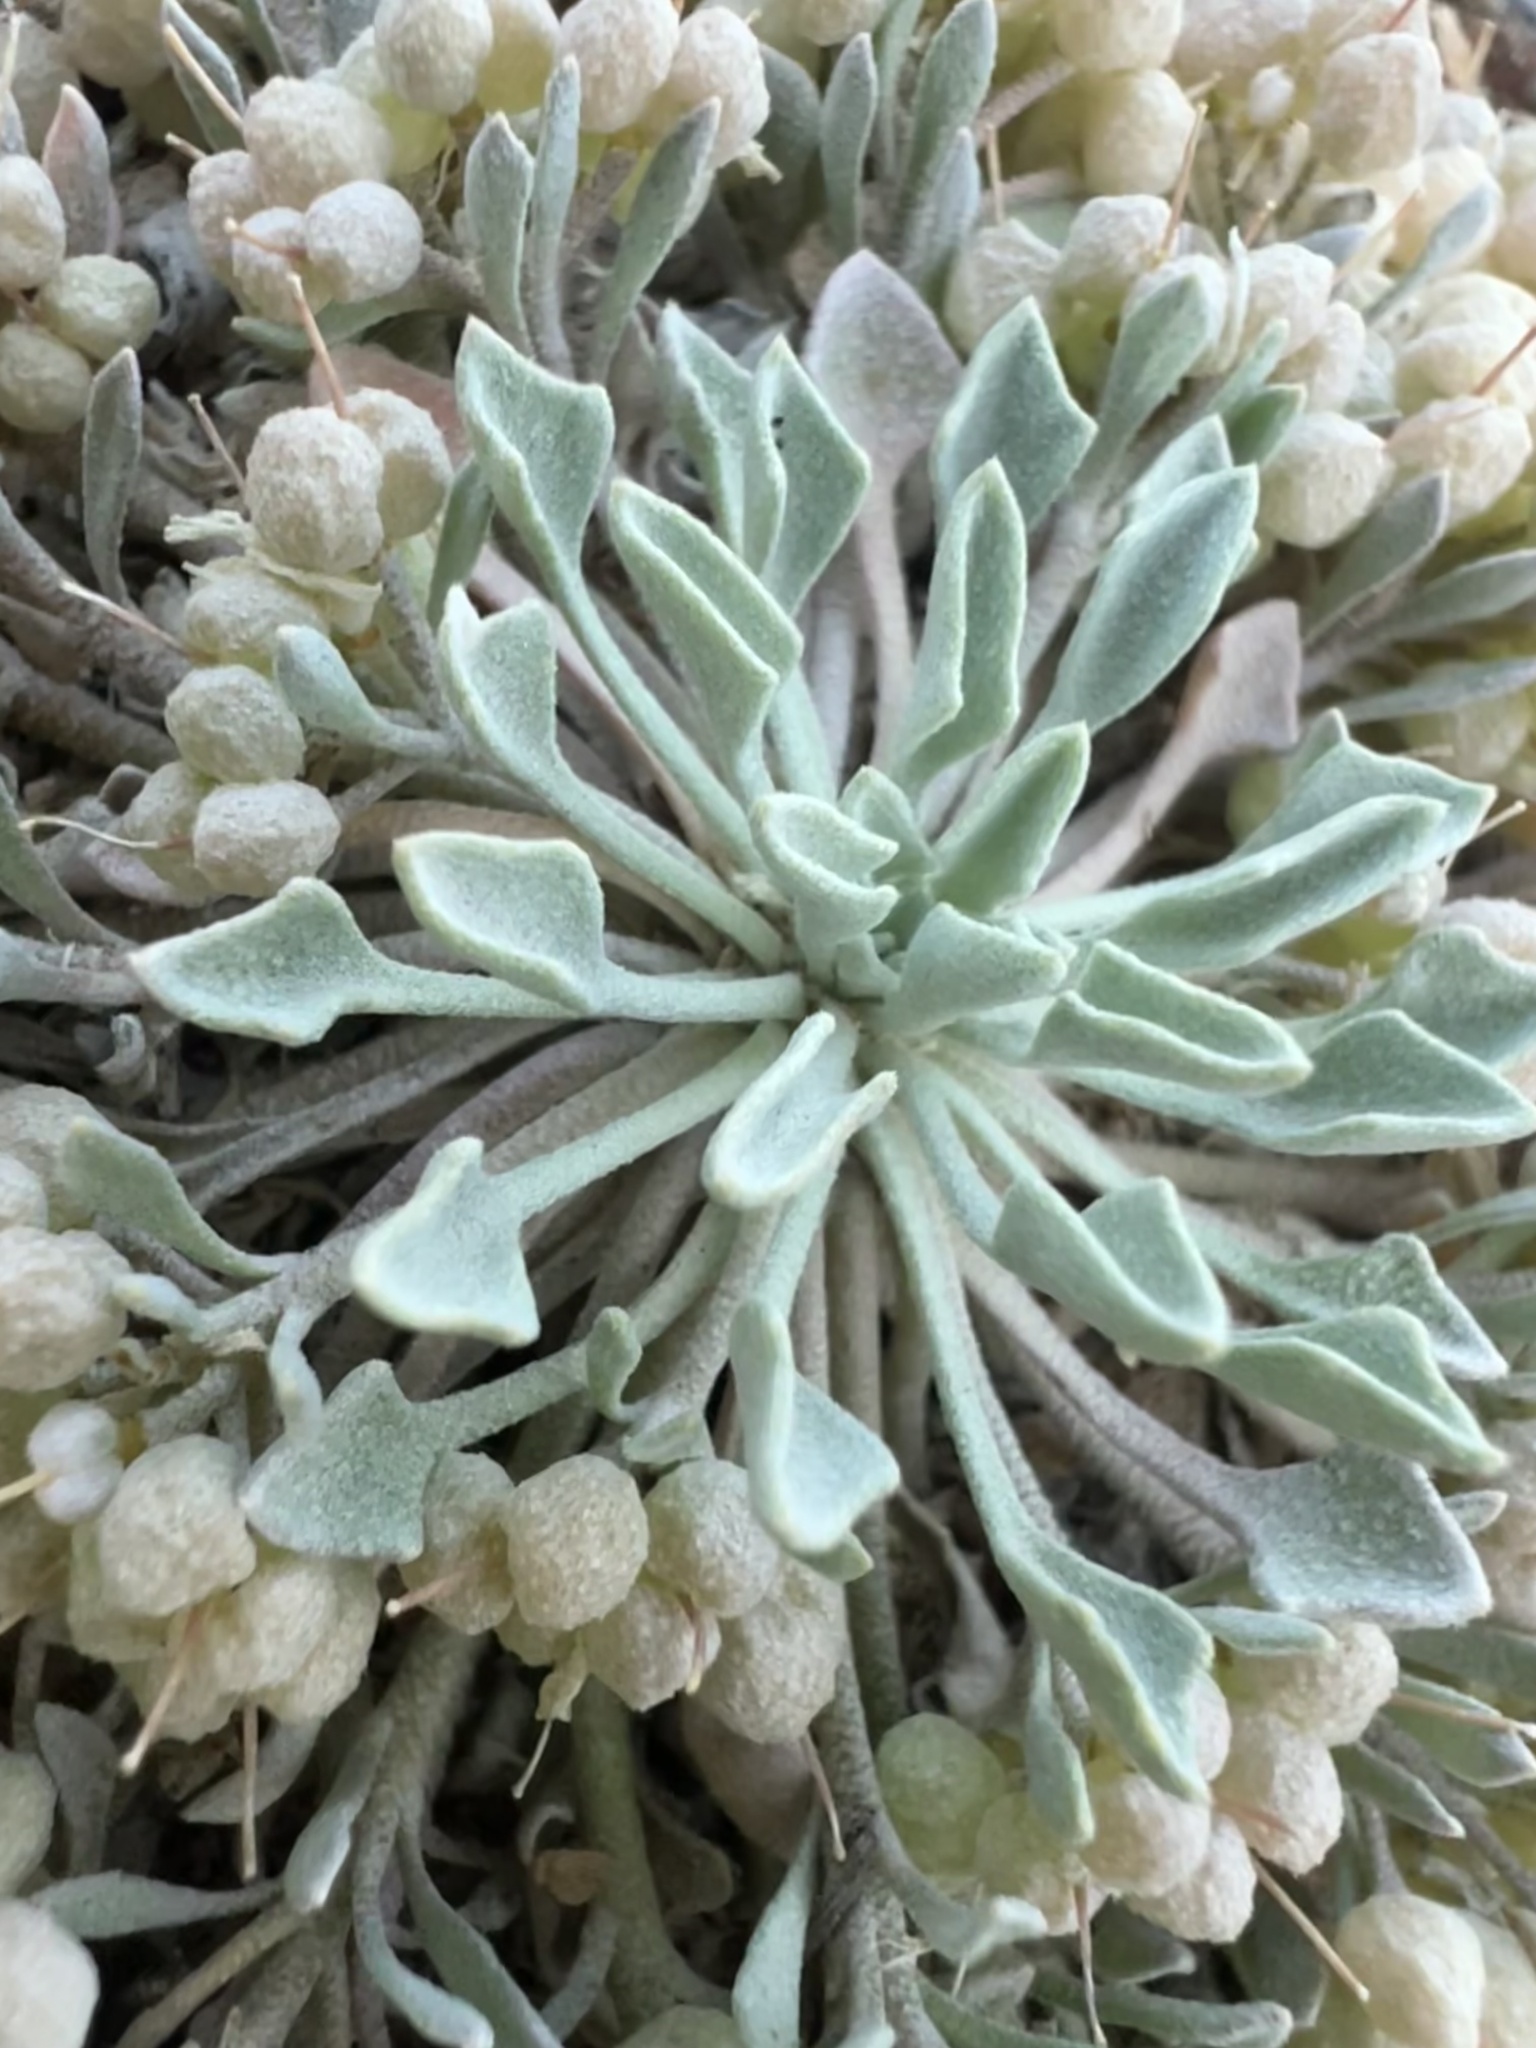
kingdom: Plantae
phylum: Tracheophyta
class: Magnoliopsida
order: Brassicales
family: Brassicaceae
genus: Physaria
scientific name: Physaria rollinsii
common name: Rollins's twinpod
